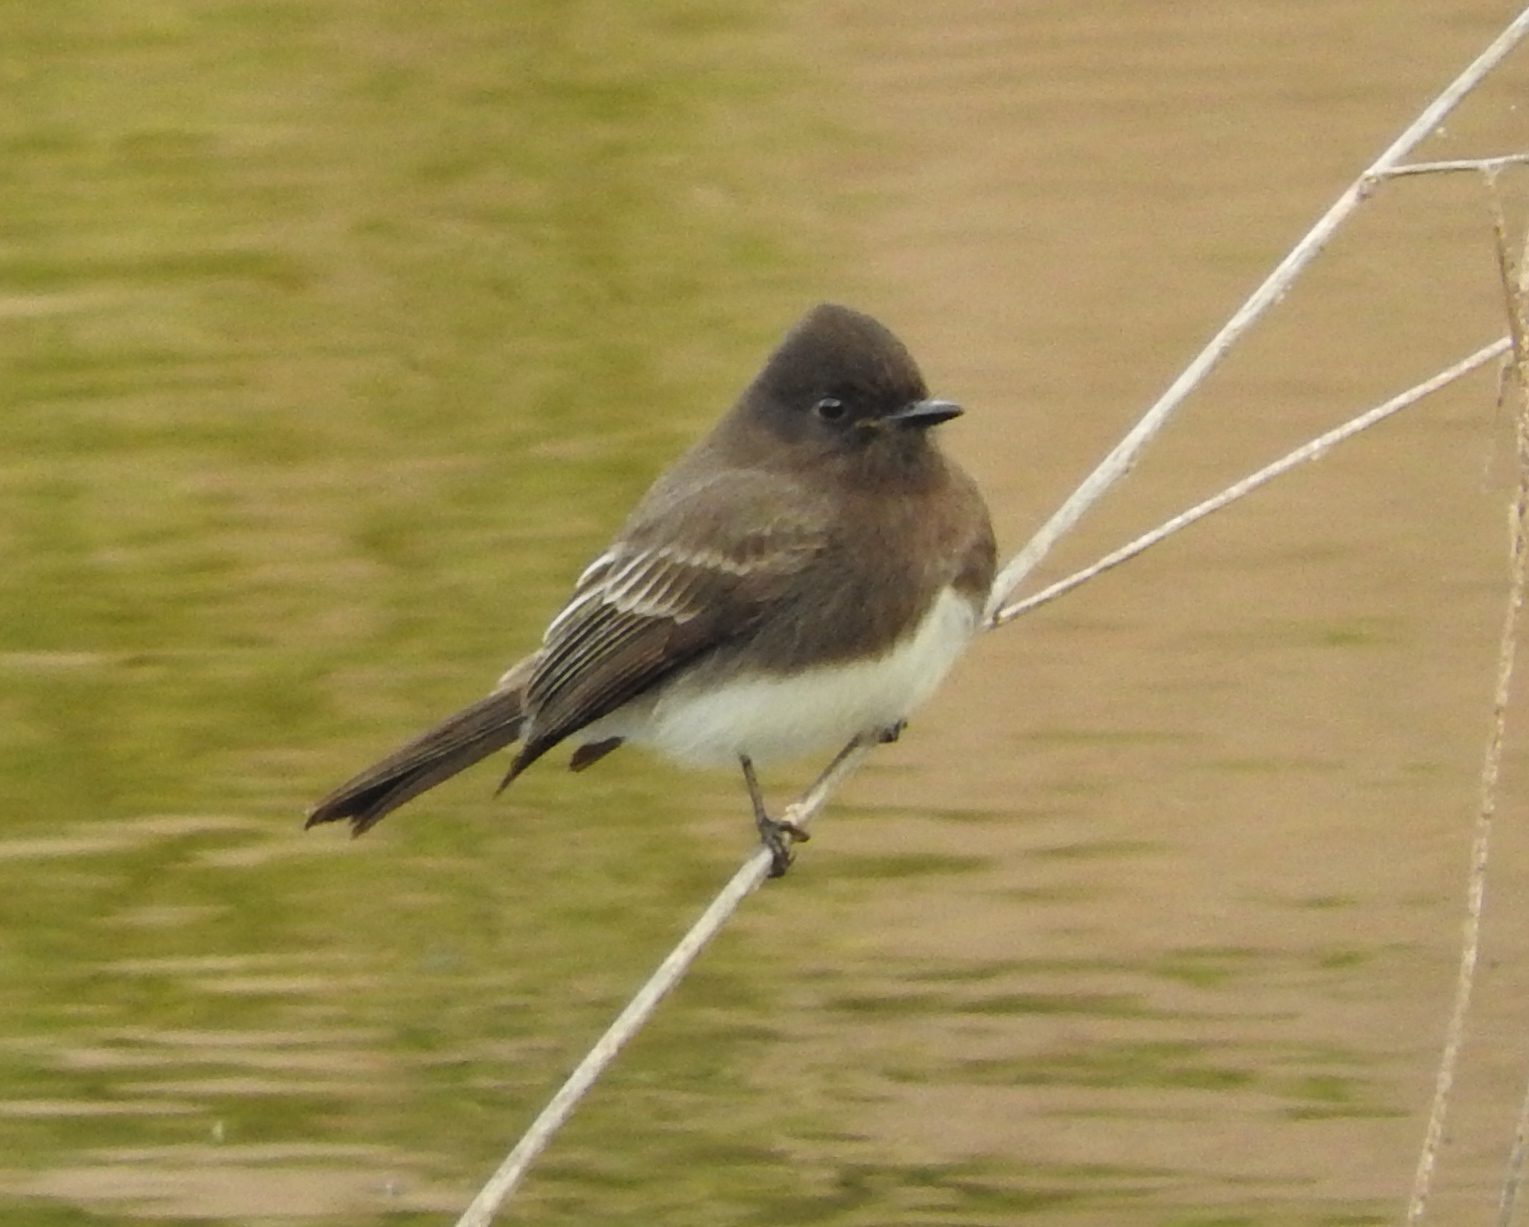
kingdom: Animalia
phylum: Chordata
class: Aves
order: Passeriformes
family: Tyrannidae
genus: Sayornis
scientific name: Sayornis nigricans
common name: Black phoebe
